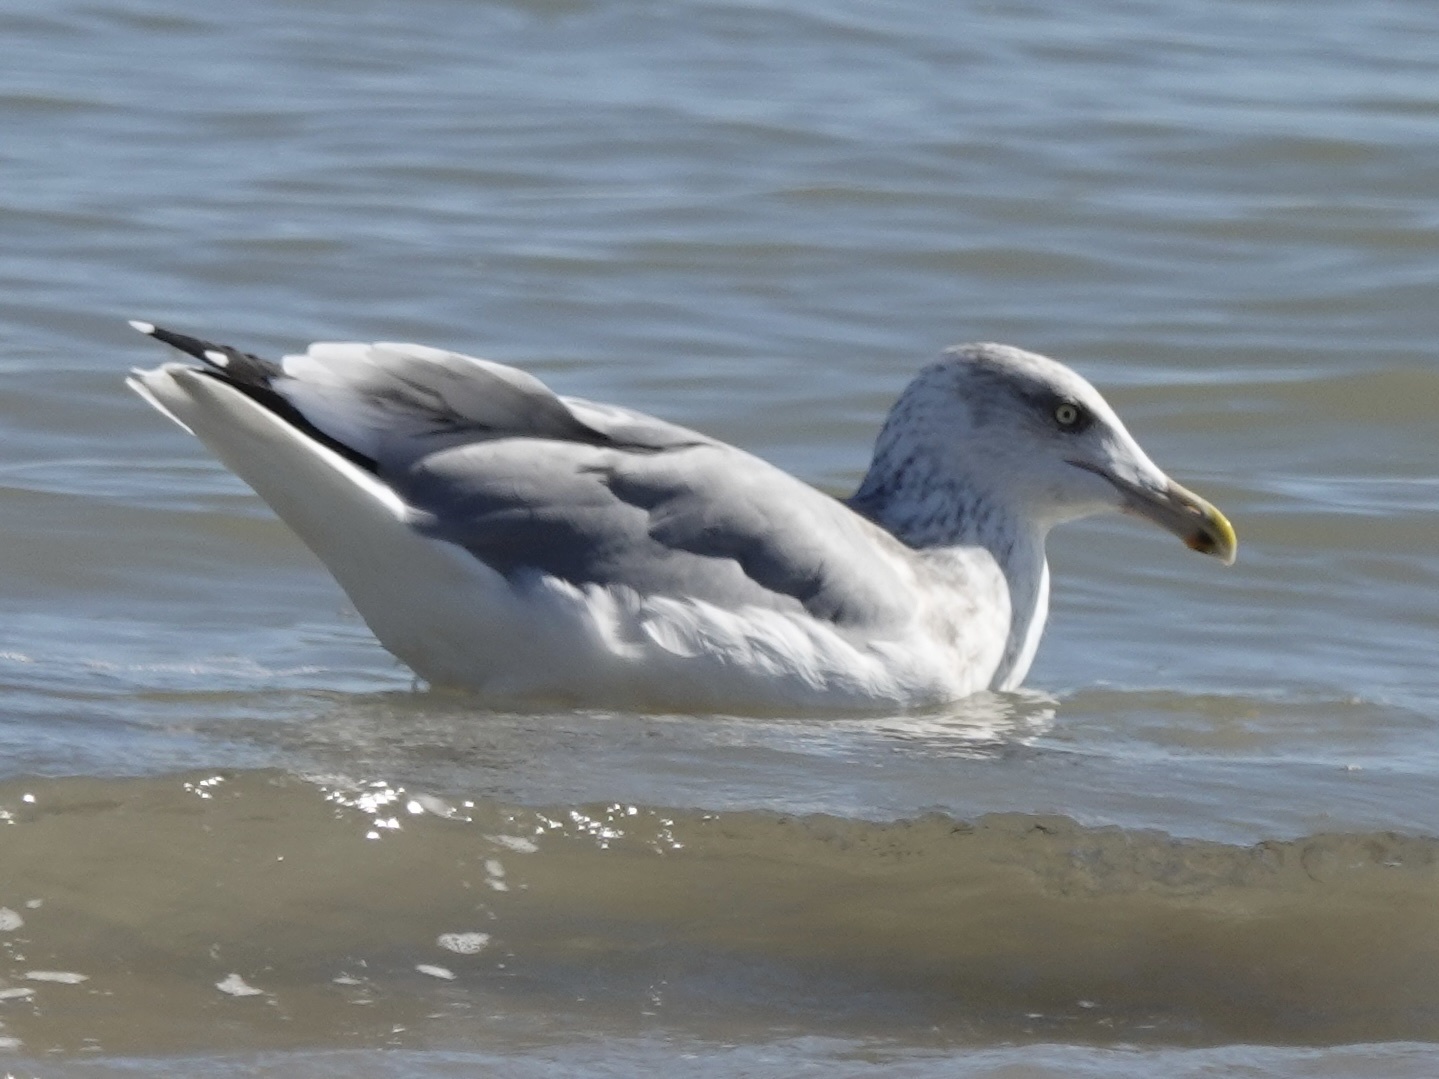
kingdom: Animalia
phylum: Chordata
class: Aves
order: Charadriiformes
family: Laridae
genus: Larus
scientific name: Larus argentatus
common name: Herring gull
